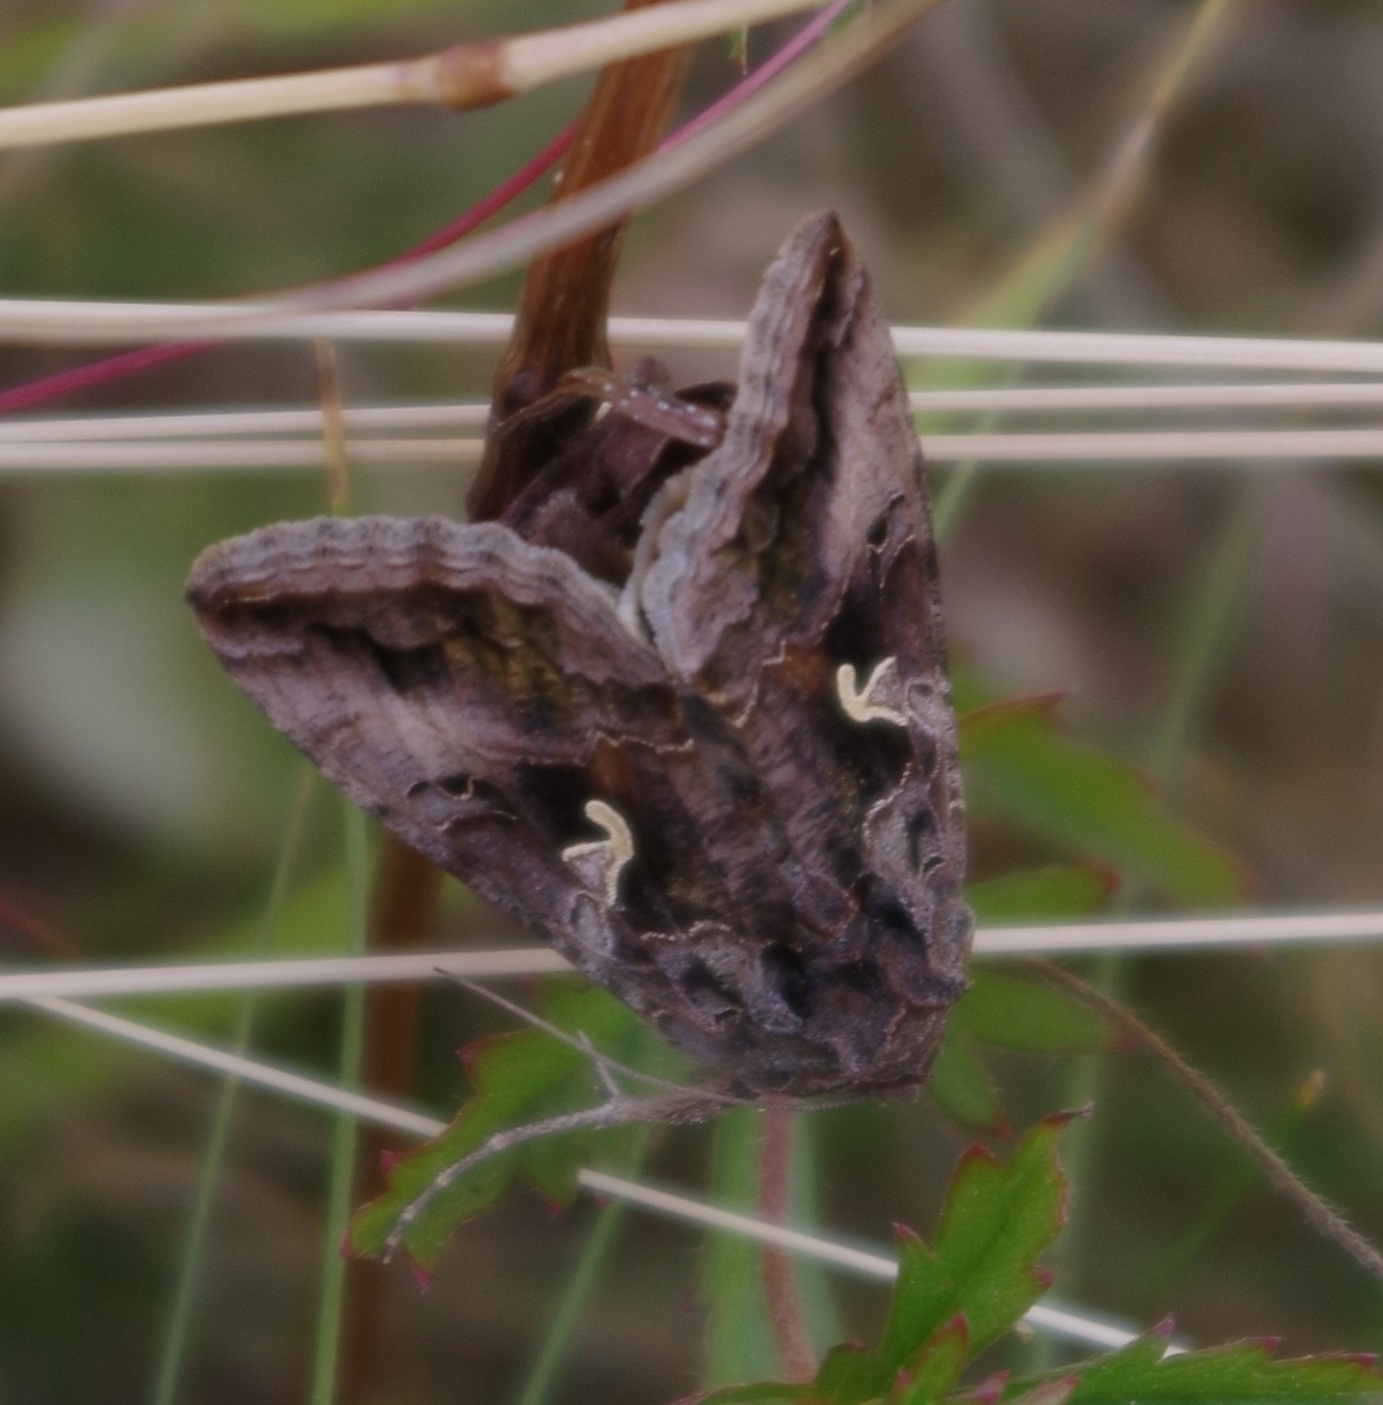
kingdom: Animalia
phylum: Arthropoda
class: Insecta
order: Lepidoptera
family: Noctuidae
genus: Autographa
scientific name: Autographa gamma
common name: Silver y
